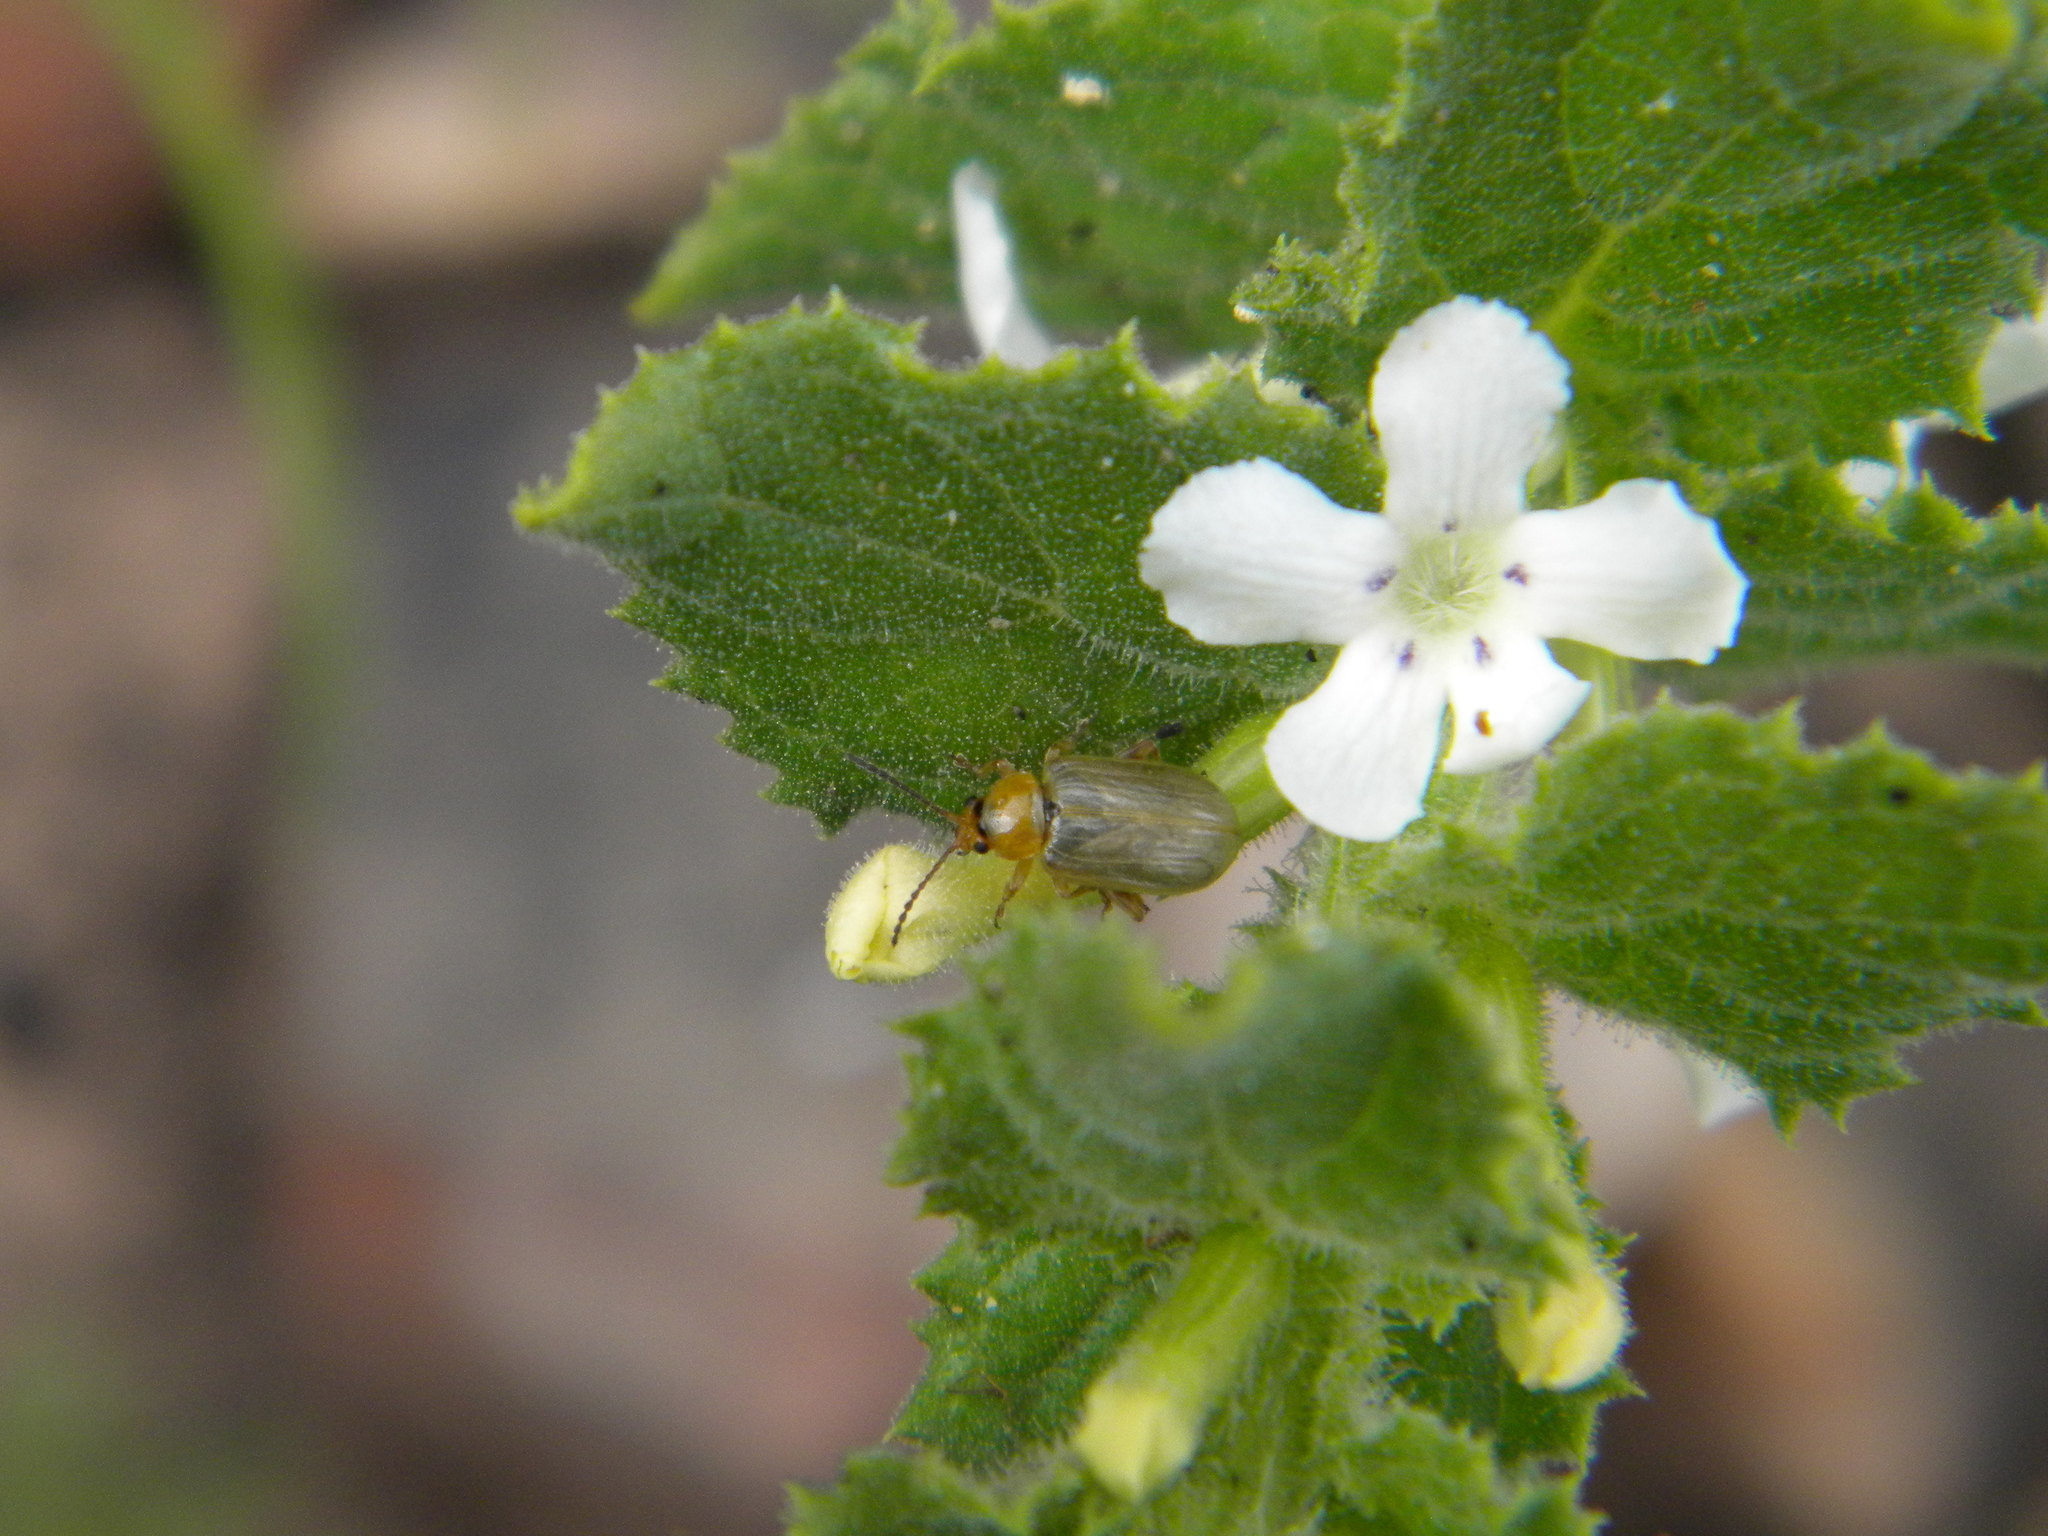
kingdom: Plantae
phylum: Tracheophyta
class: Magnoliopsida
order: Lamiales
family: Scrophulariaceae
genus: Oftia
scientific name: Oftia africana
